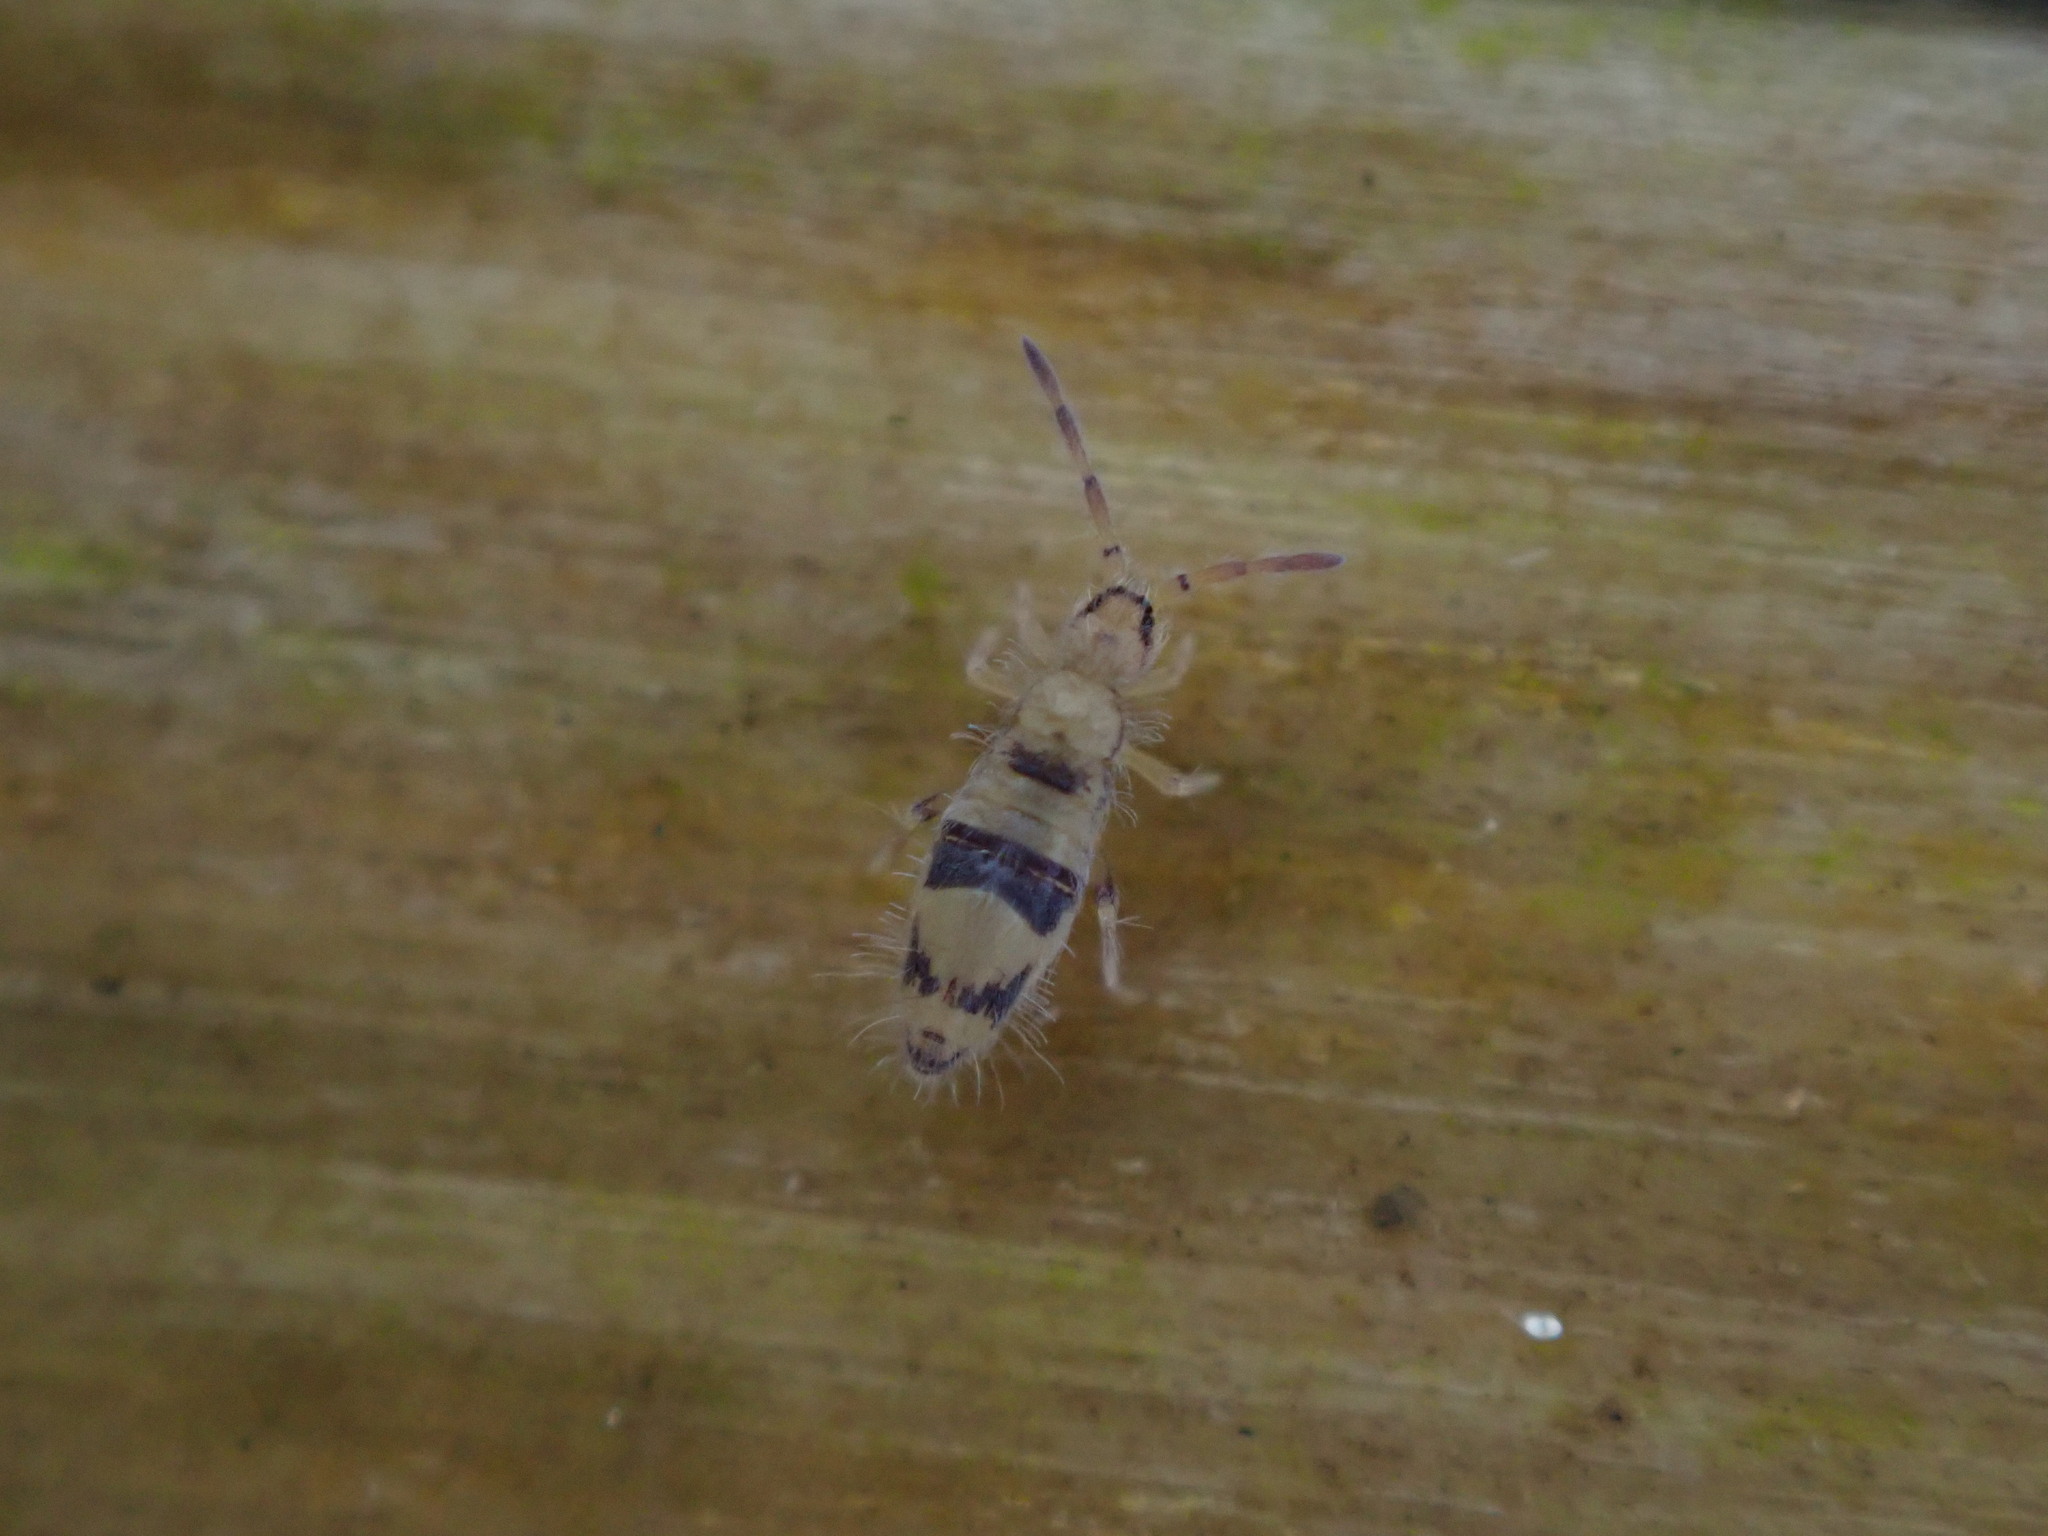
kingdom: Animalia
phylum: Arthropoda
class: Collembola
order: Entomobryomorpha
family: Entomobryidae
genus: Entomobrya
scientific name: Entomobrya triangularis
